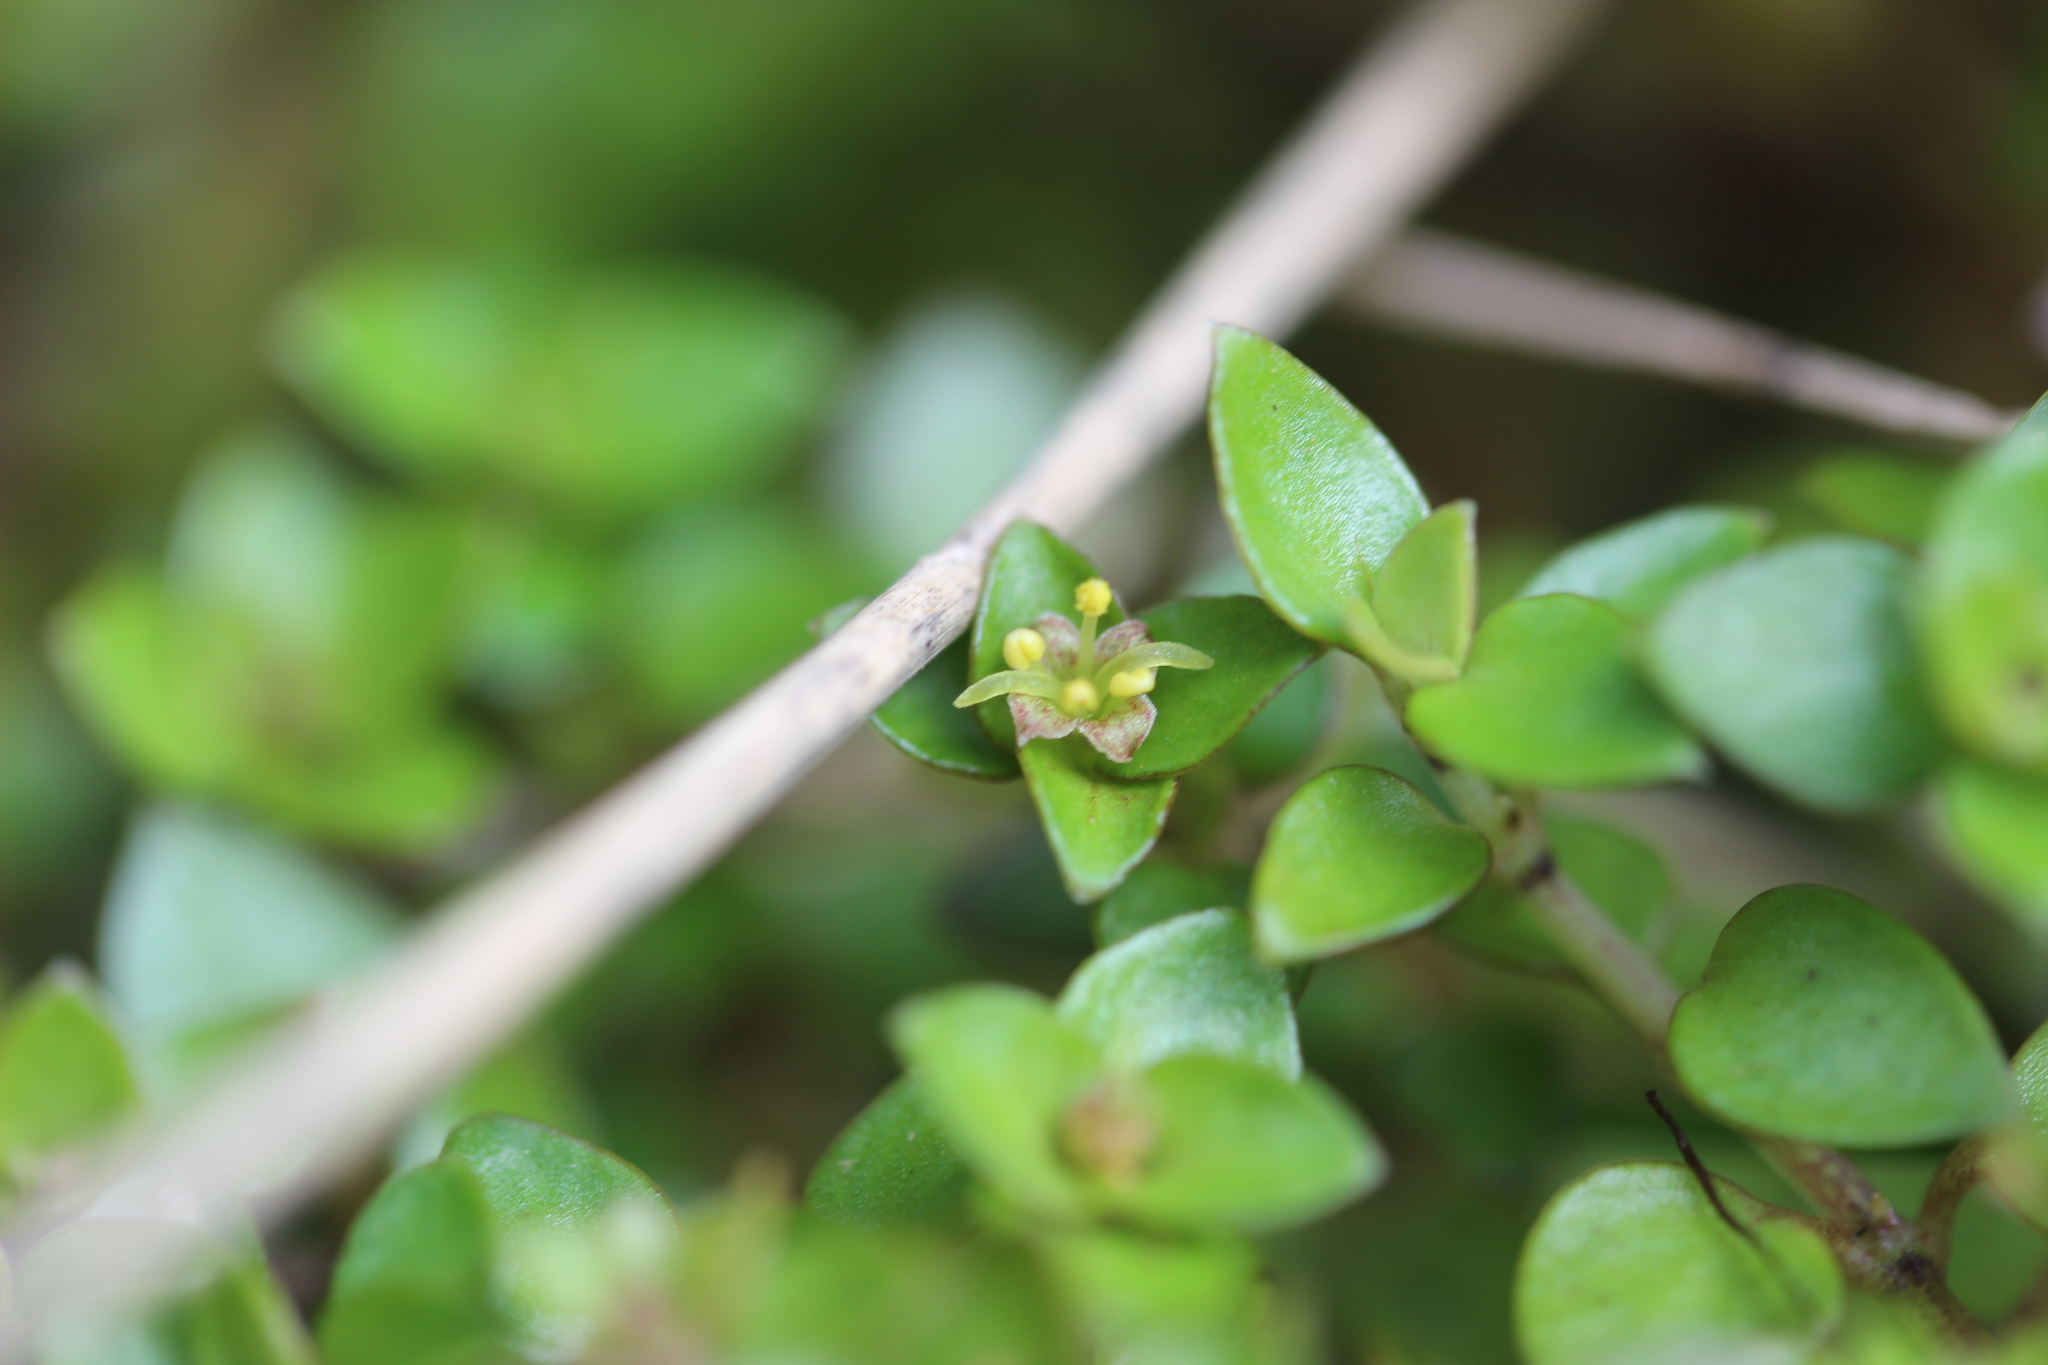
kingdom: Plantae
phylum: Tracheophyta
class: Magnoliopsida
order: Gentianales
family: Rubiaceae
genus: Nertera
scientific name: Nertera granadensis
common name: Beadplant
